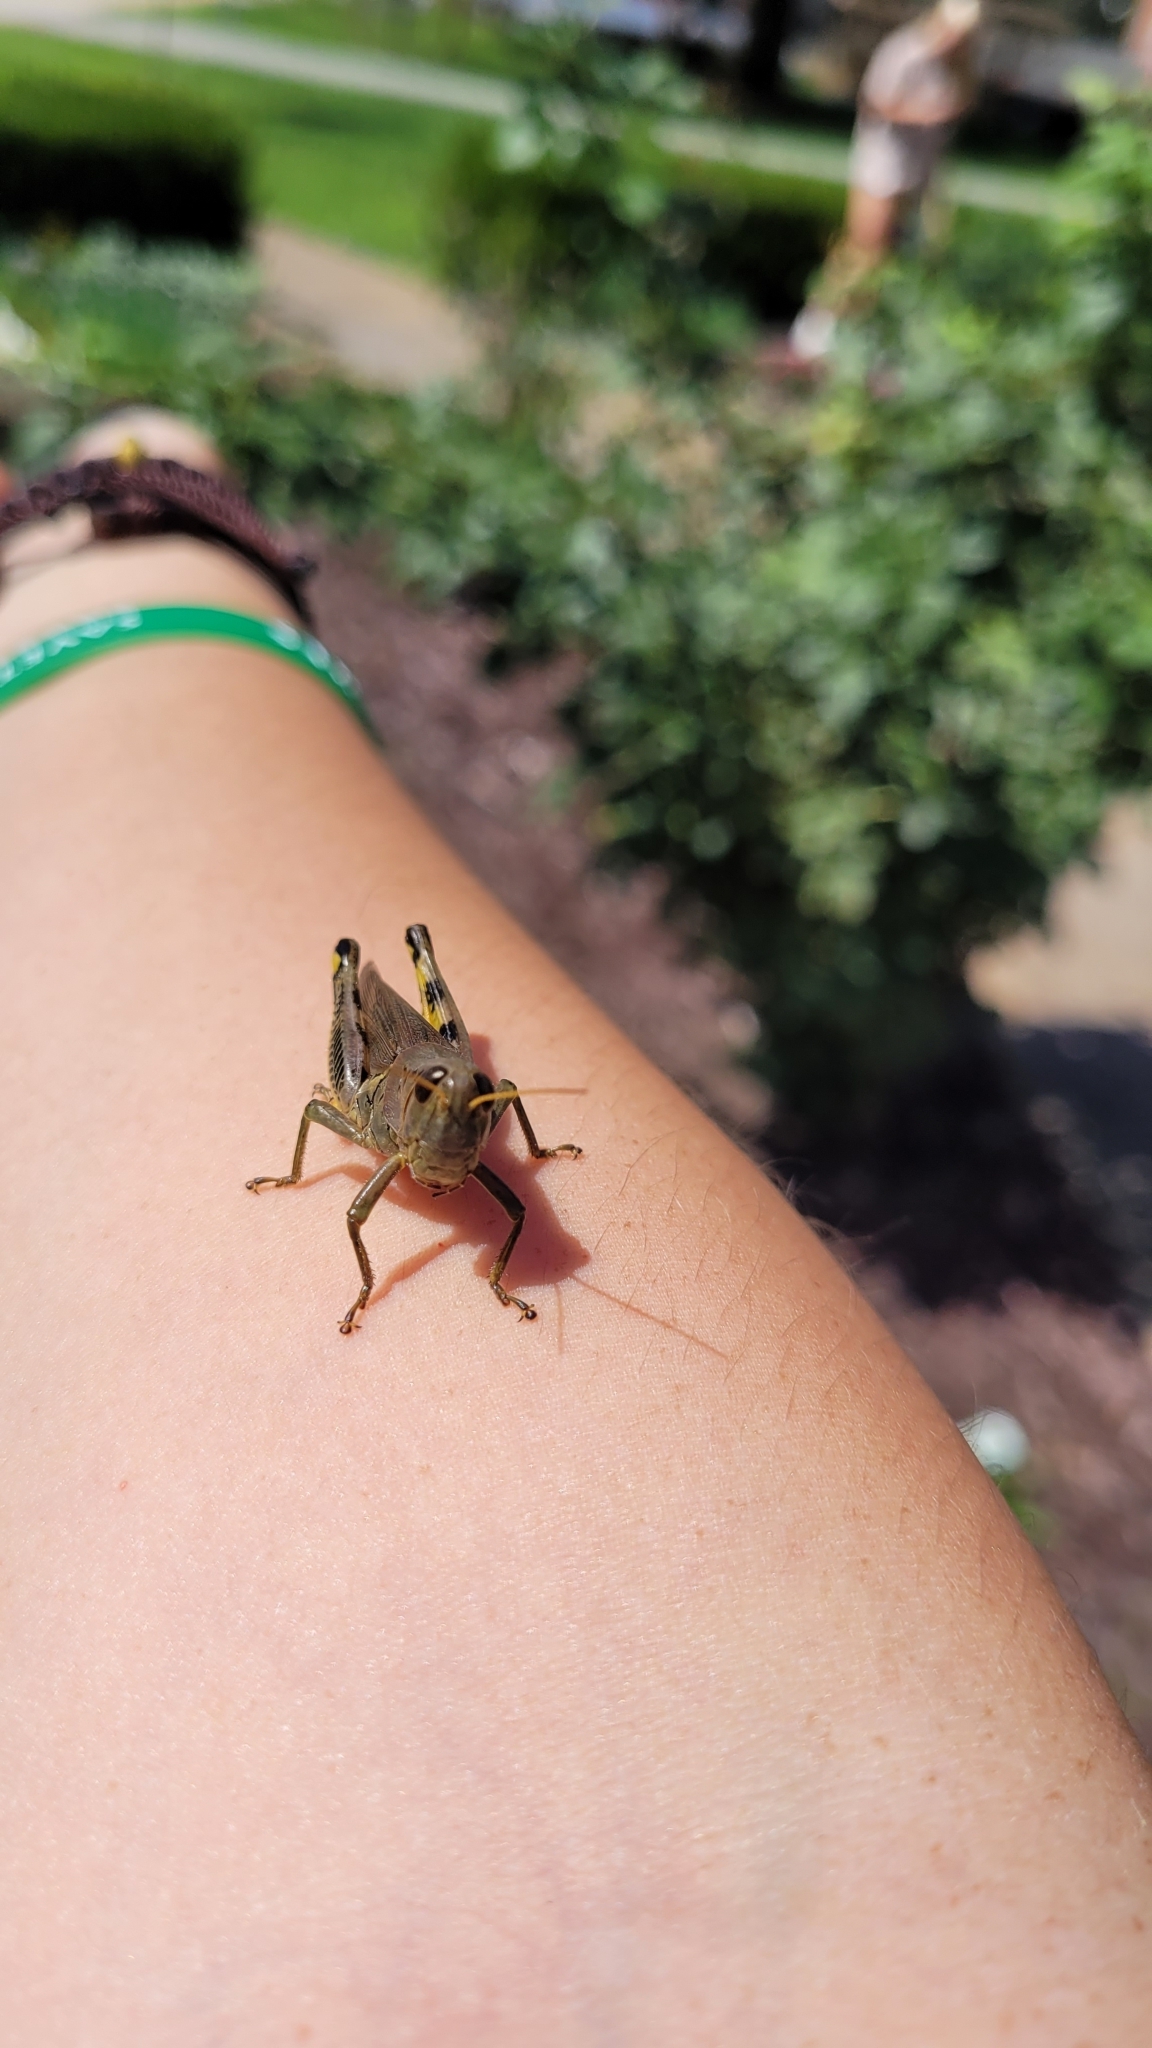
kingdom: Animalia
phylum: Arthropoda
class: Insecta
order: Orthoptera
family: Acrididae
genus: Melanoplus
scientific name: Melanoplus differentialis
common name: Differential grasshopper
